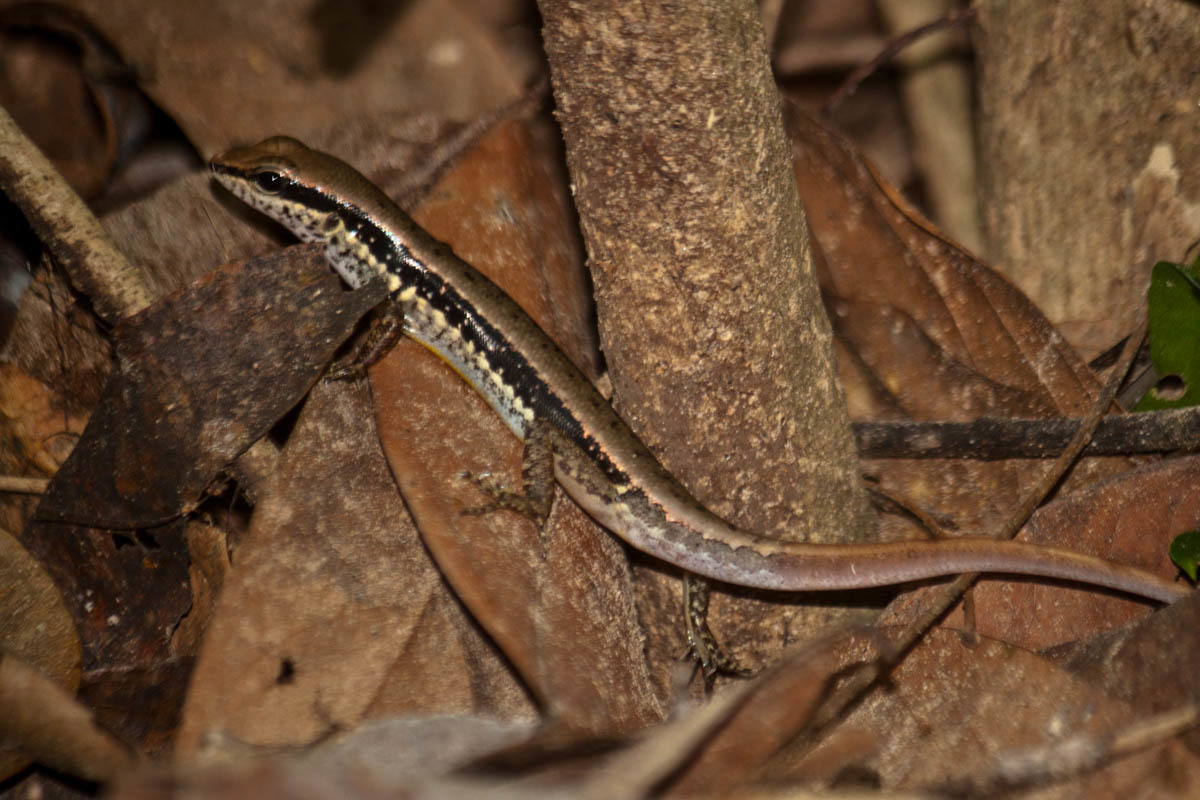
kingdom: Animalia
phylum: Chordata
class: Squamata
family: Scincidae
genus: Sphenomorphus
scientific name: Sphenomorphus maculatus
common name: Maculated forest skink
